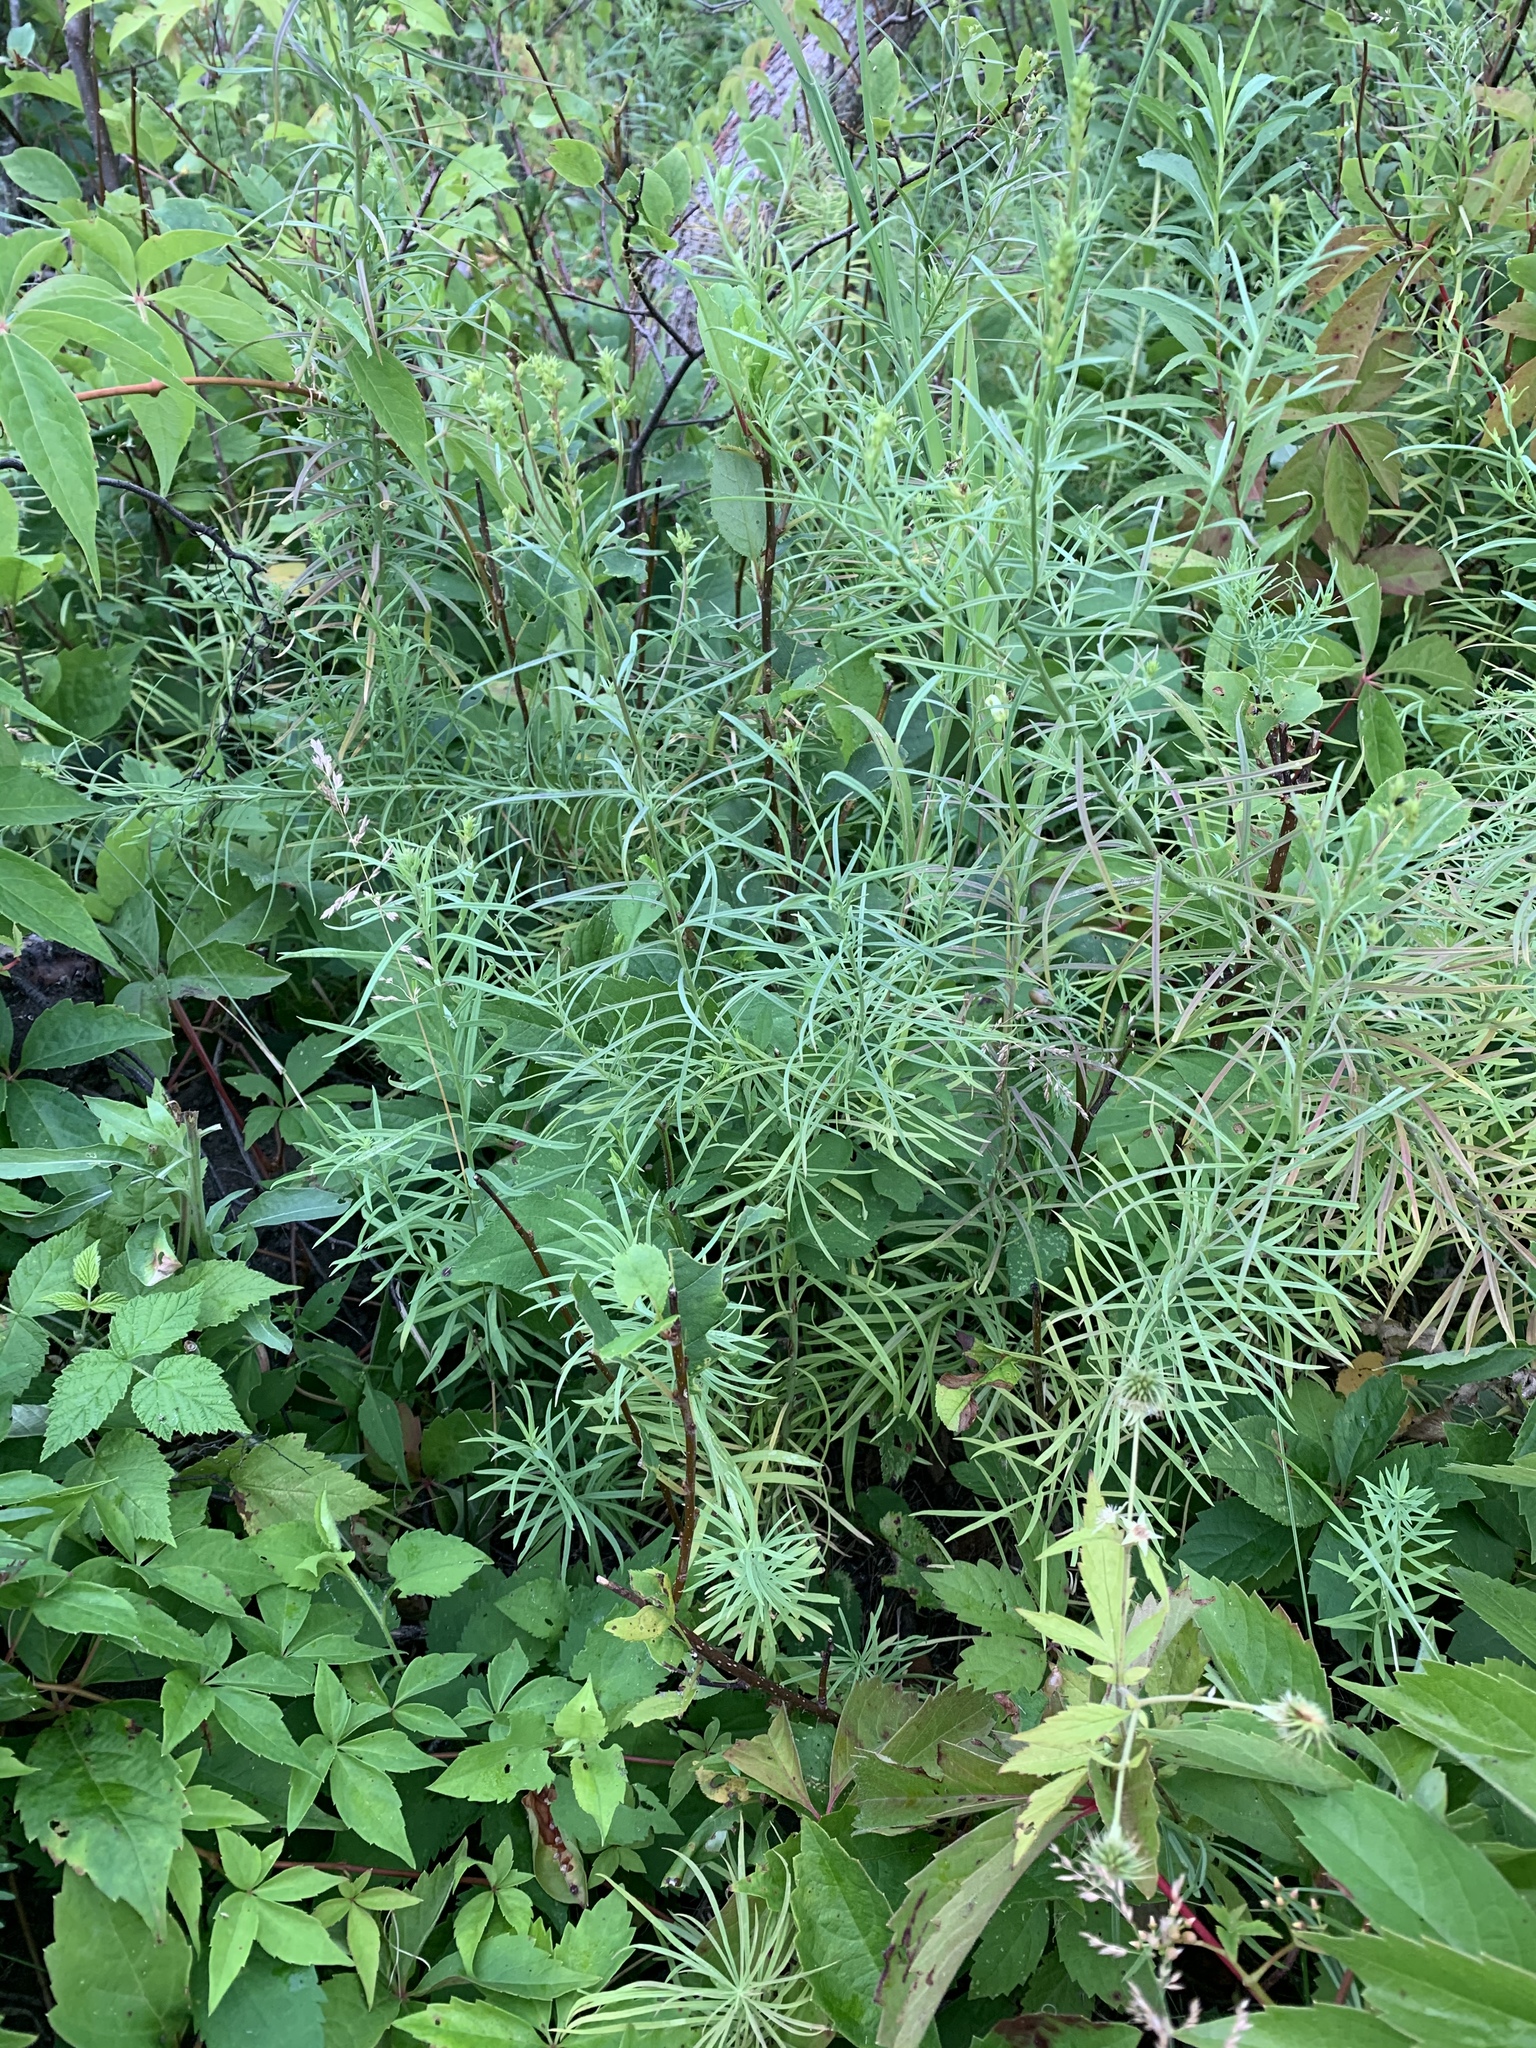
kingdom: Plantae
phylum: Tracheophyta
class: Magnoliopsida
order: Lamiales
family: Plantaginaceae
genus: Linaria
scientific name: Linaria vulgaris
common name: Butter and eggs
